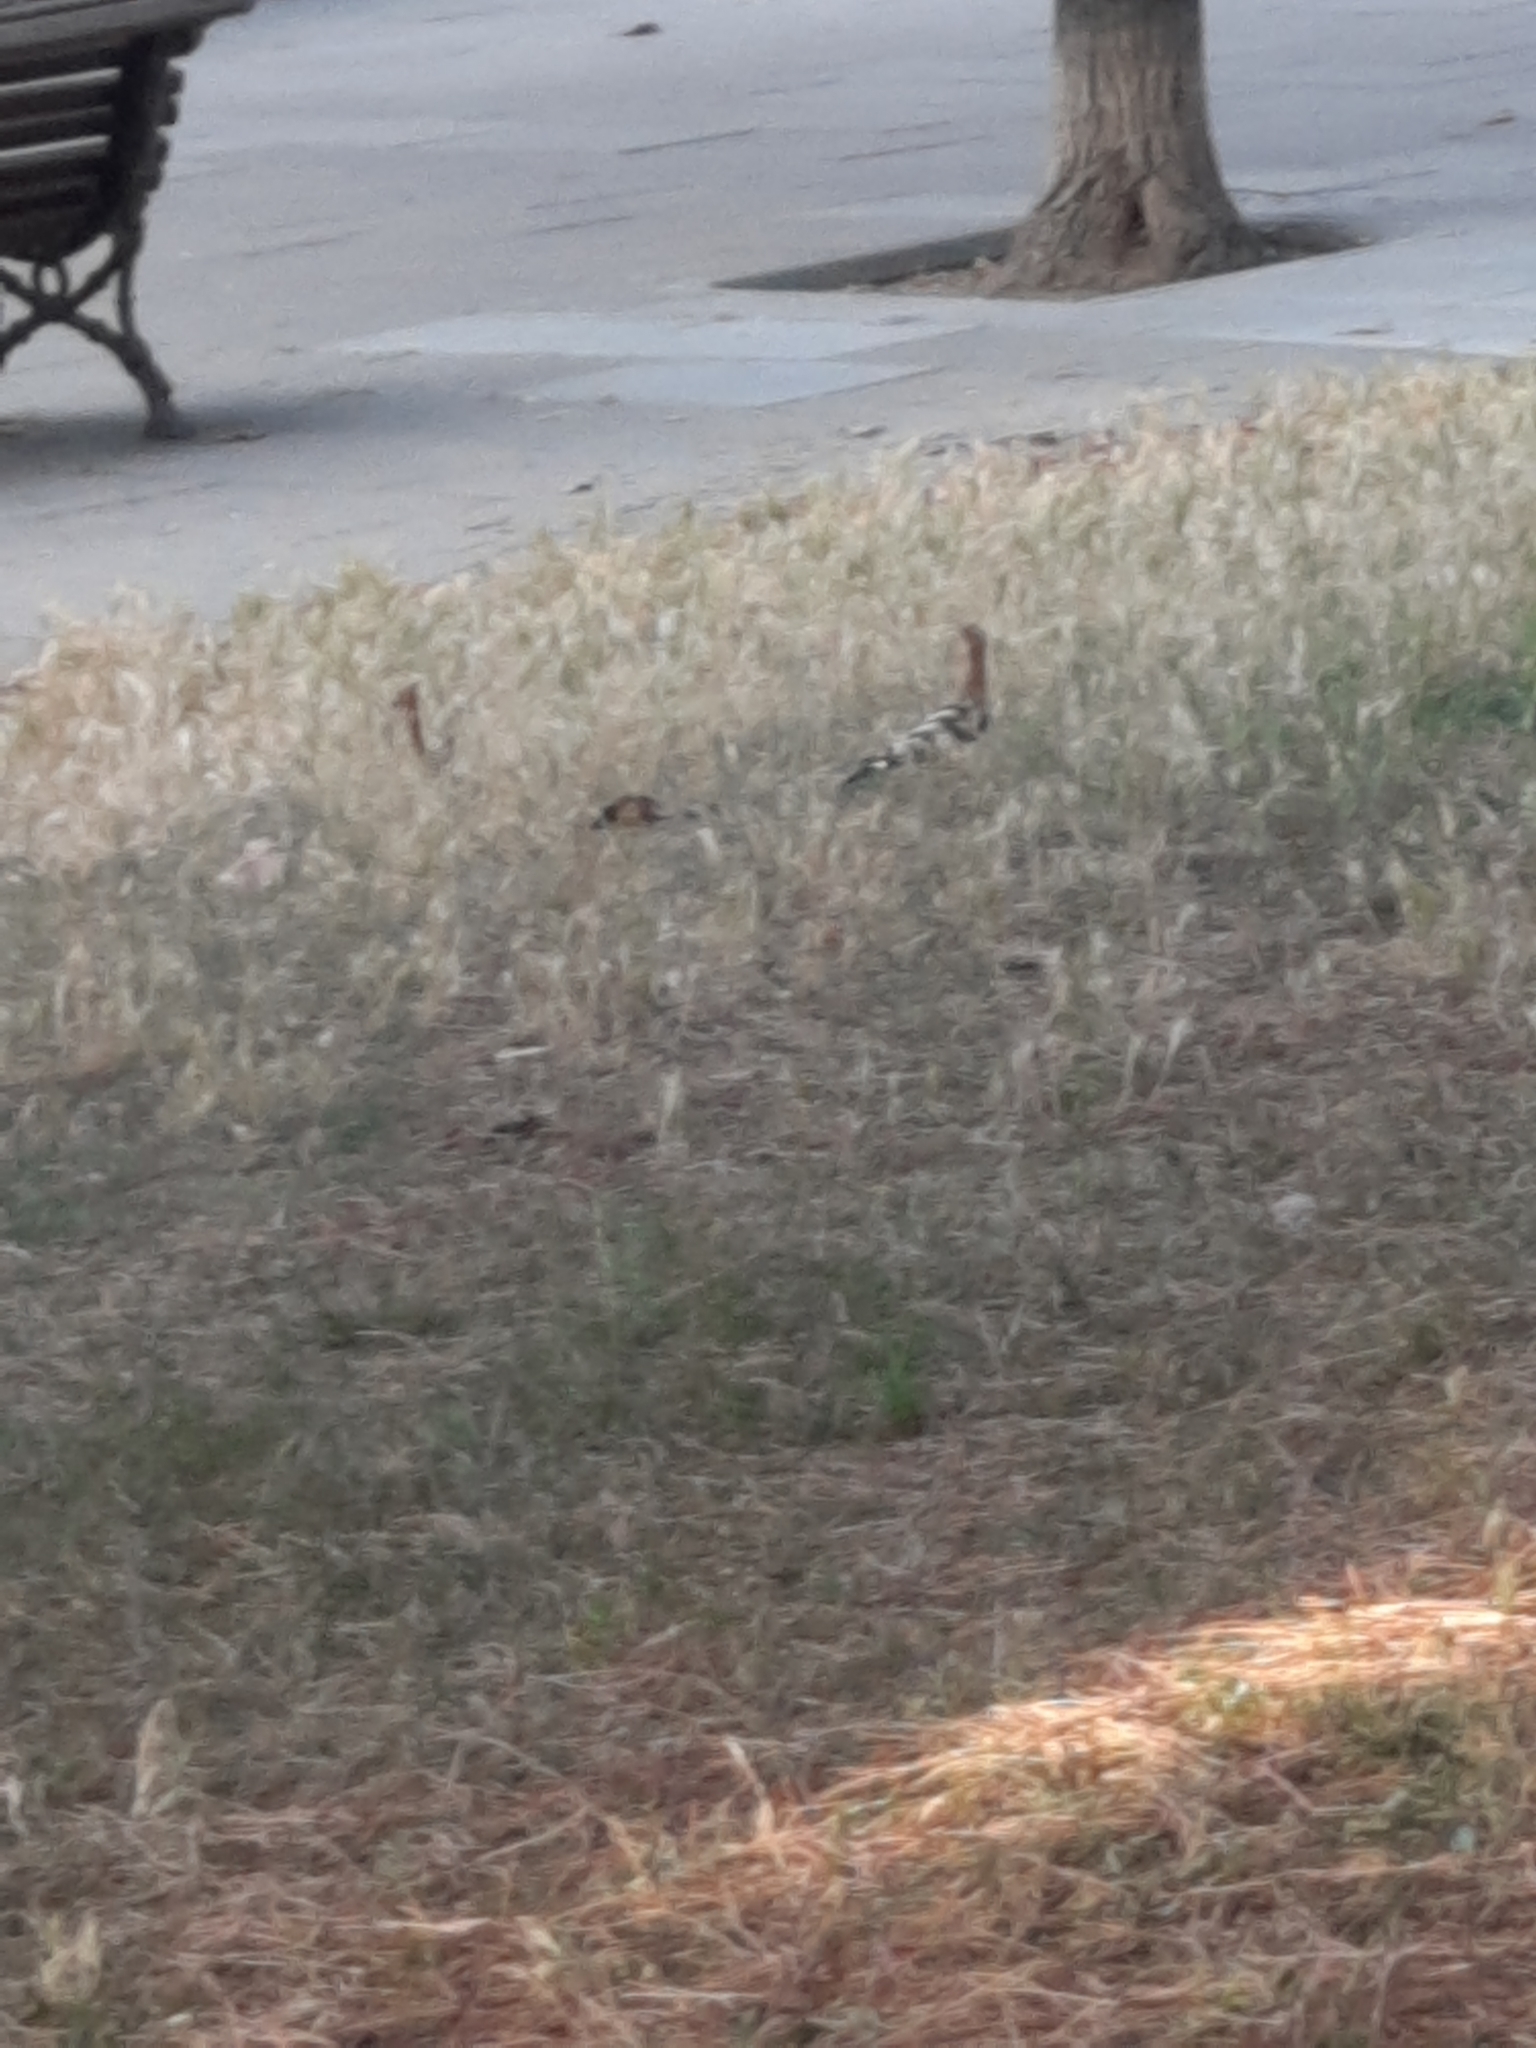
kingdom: Animalia
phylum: Chordata
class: Aves
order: Bucerotiformes
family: Upupidae
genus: Upupa
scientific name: Upupa epops
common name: Eurasian hoopoe
